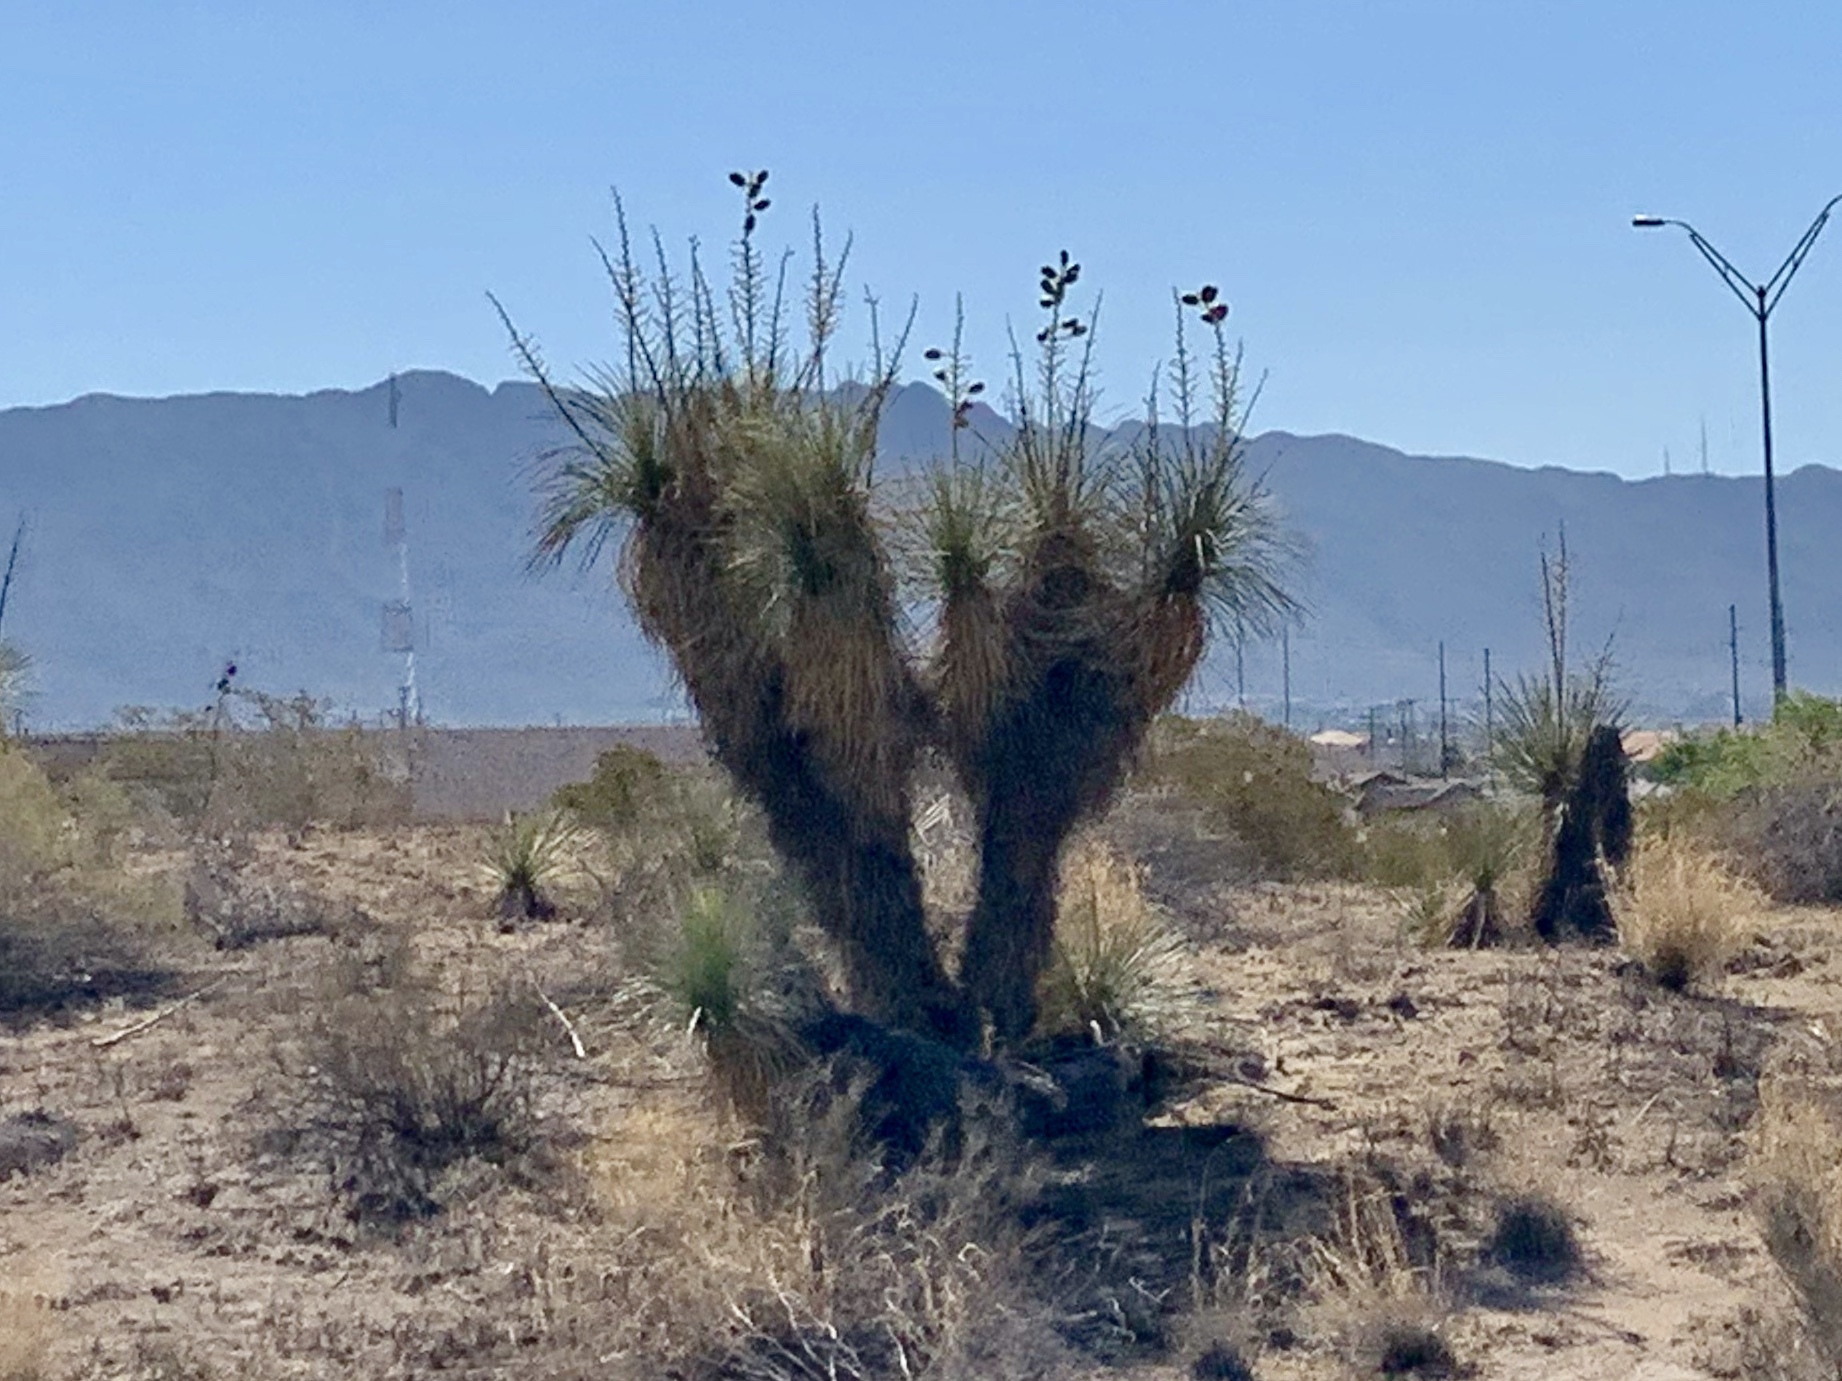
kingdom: Plantae
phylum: Tracheophyta
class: Liliopsida
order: Asparagales
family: Asparagaceae
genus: Yucca
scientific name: Yucca elata
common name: Palmella
